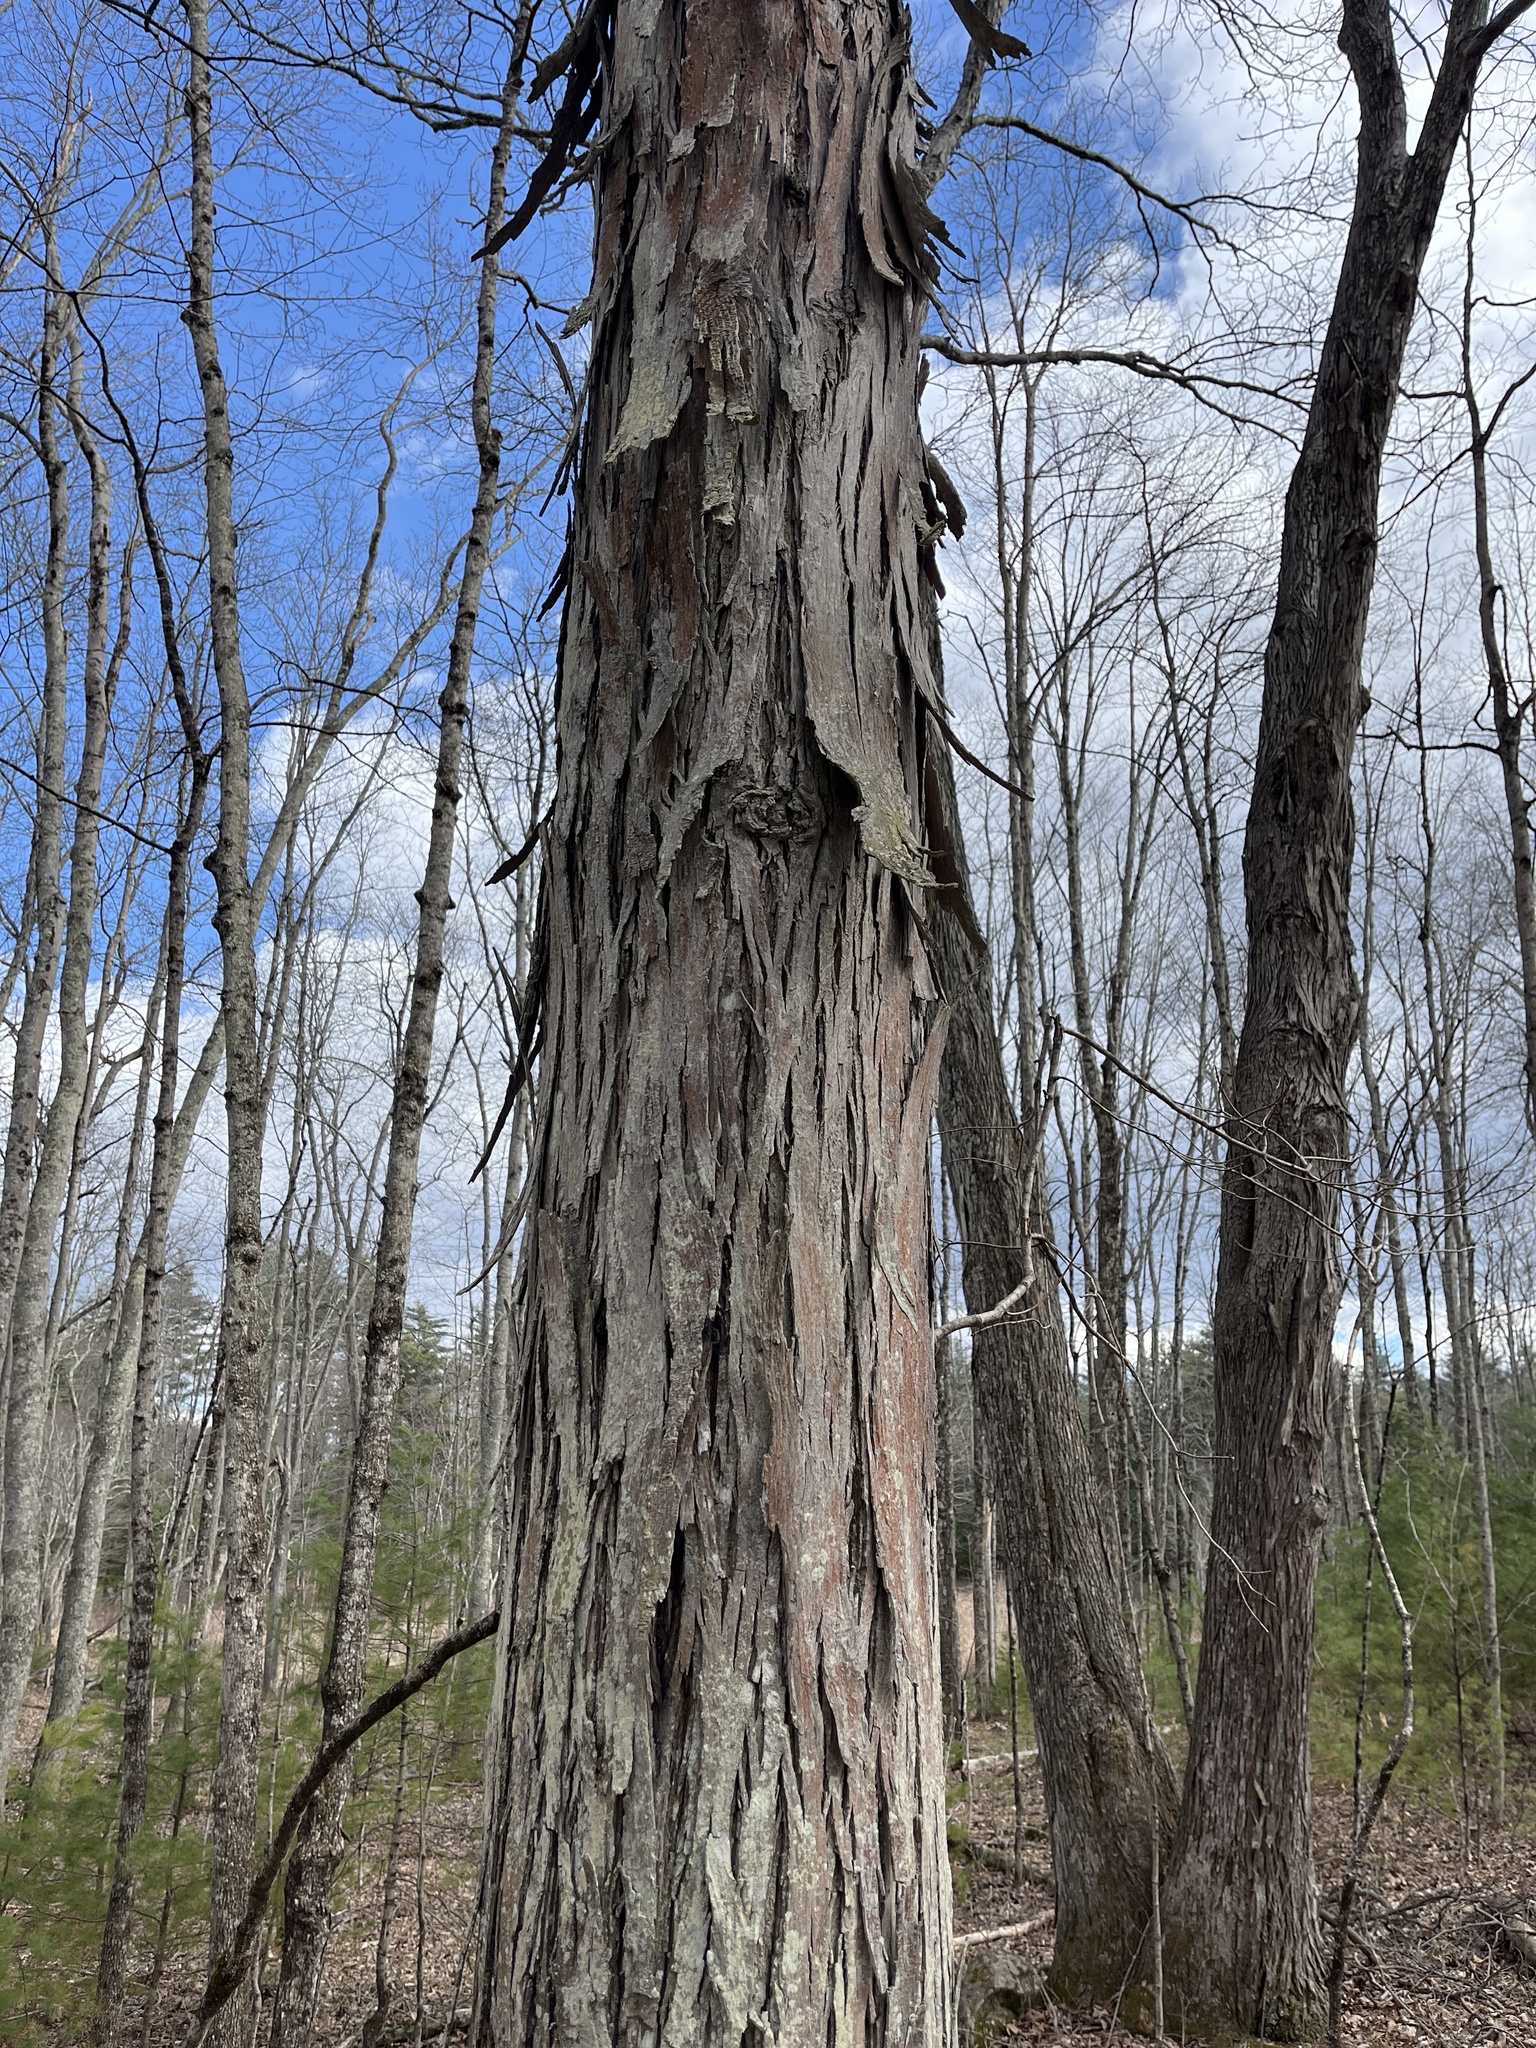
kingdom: Plantae
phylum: Tracheophyta
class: Magnoliopsida
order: Fagales
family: Juglandaceae
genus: Carya
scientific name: Carya ovata
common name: Shagbark hickory
